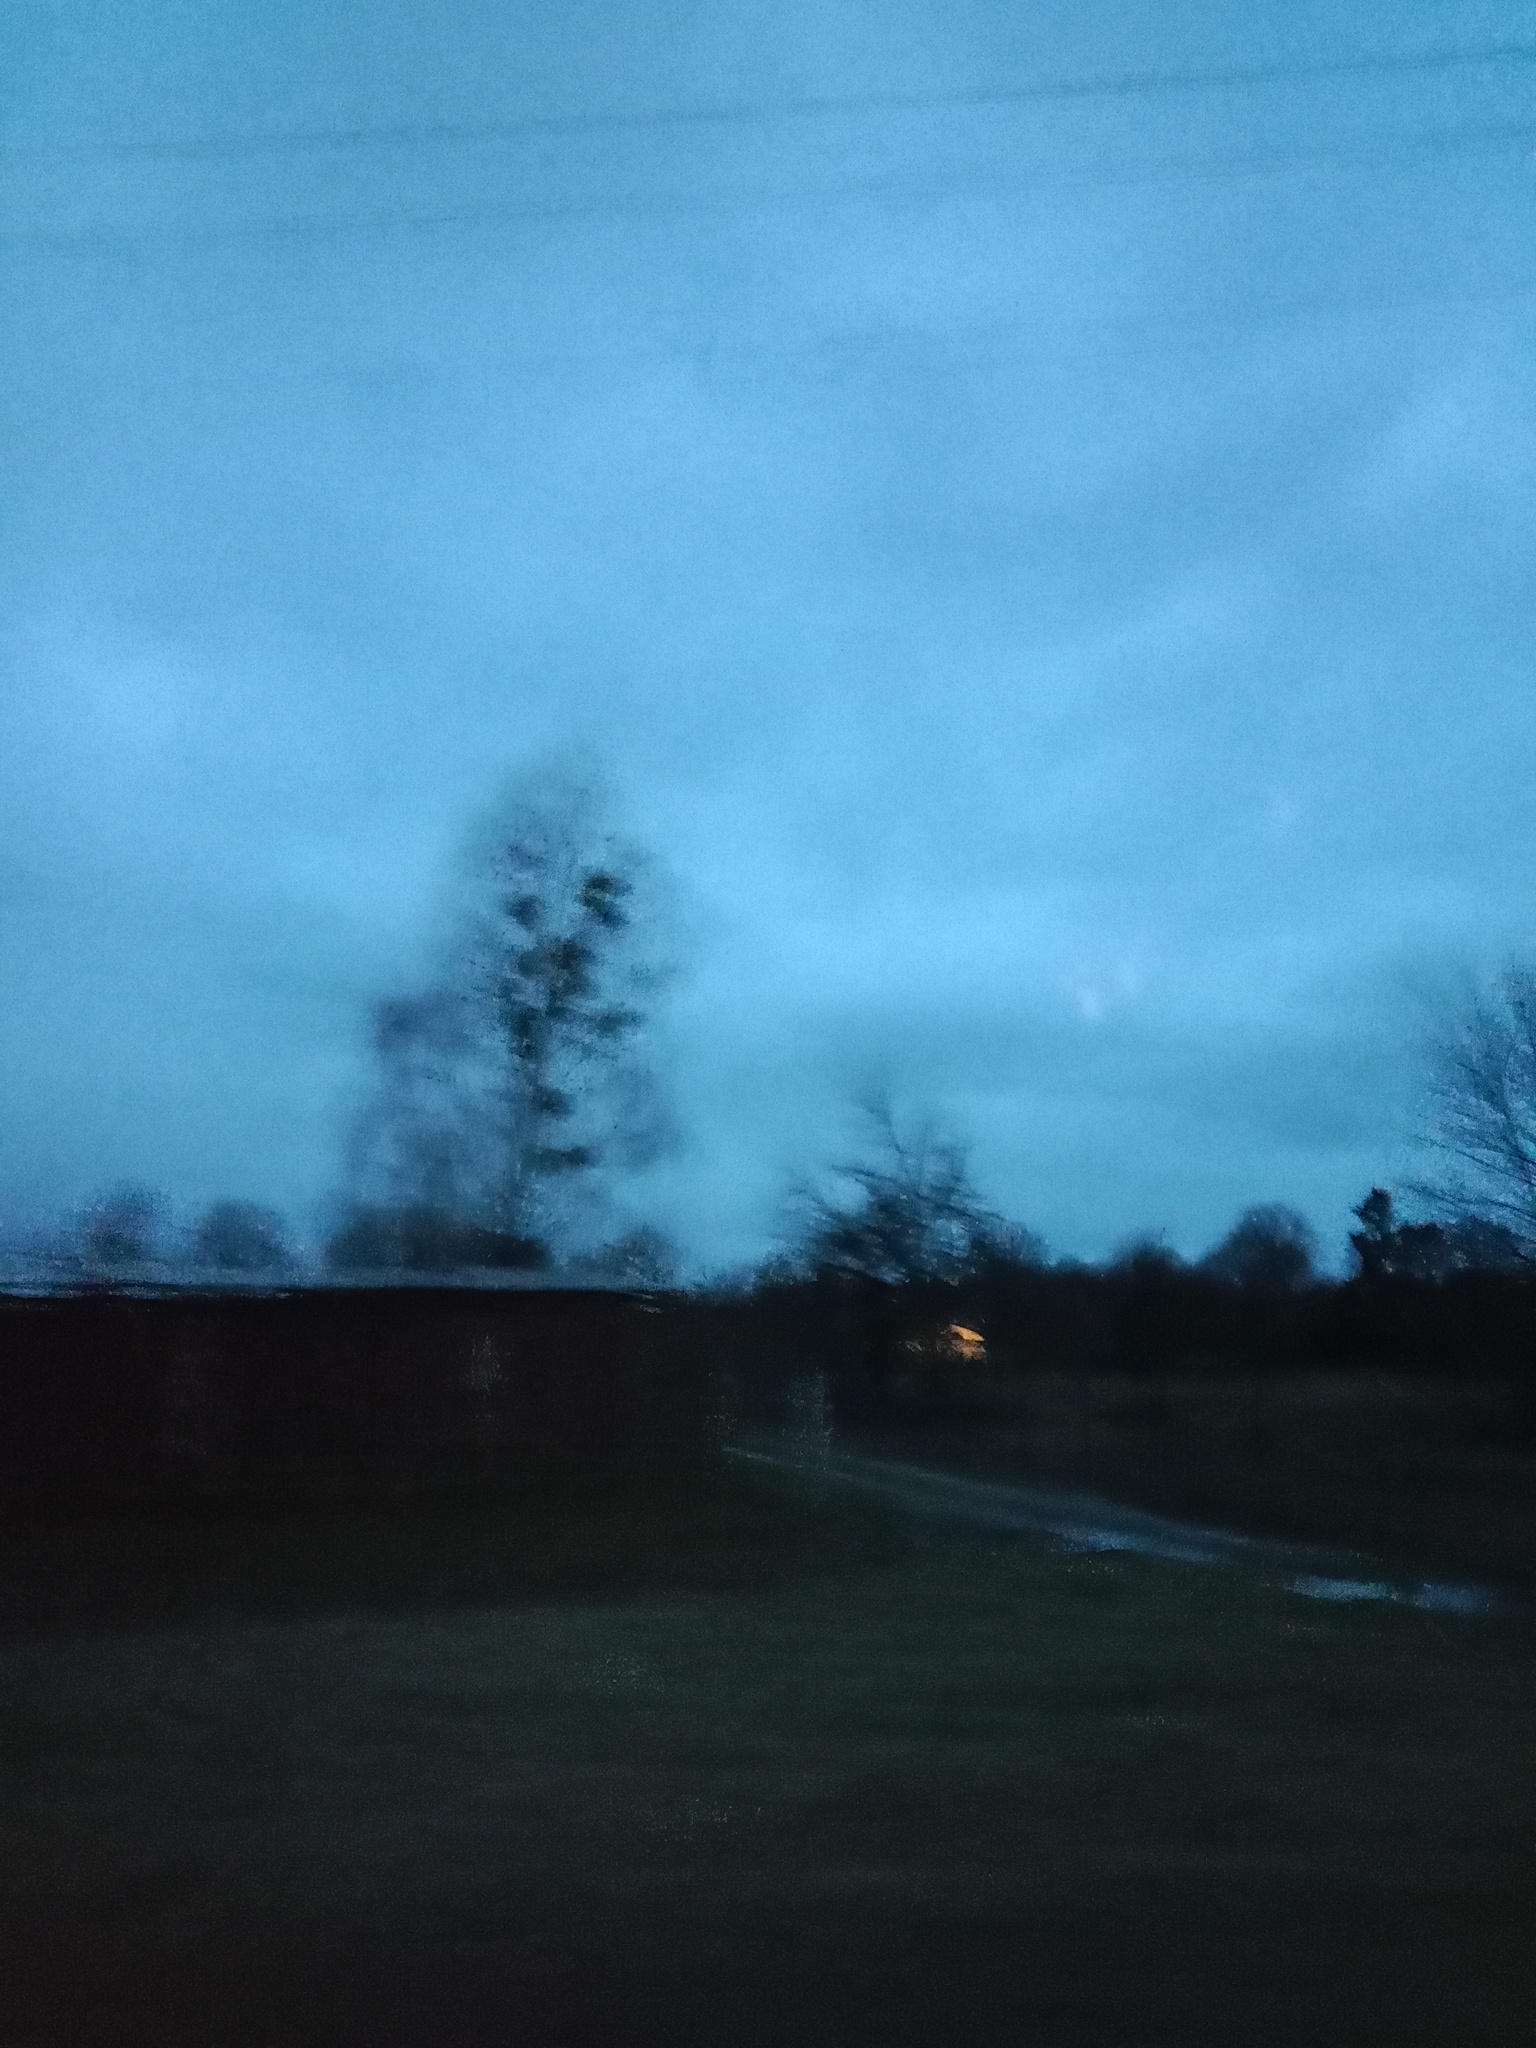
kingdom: Plantae
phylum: Tracheophyta
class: Magnoliopsida
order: Santalales
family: Viscaceae
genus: Viscum
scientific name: Viscum album
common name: Mistletoe
